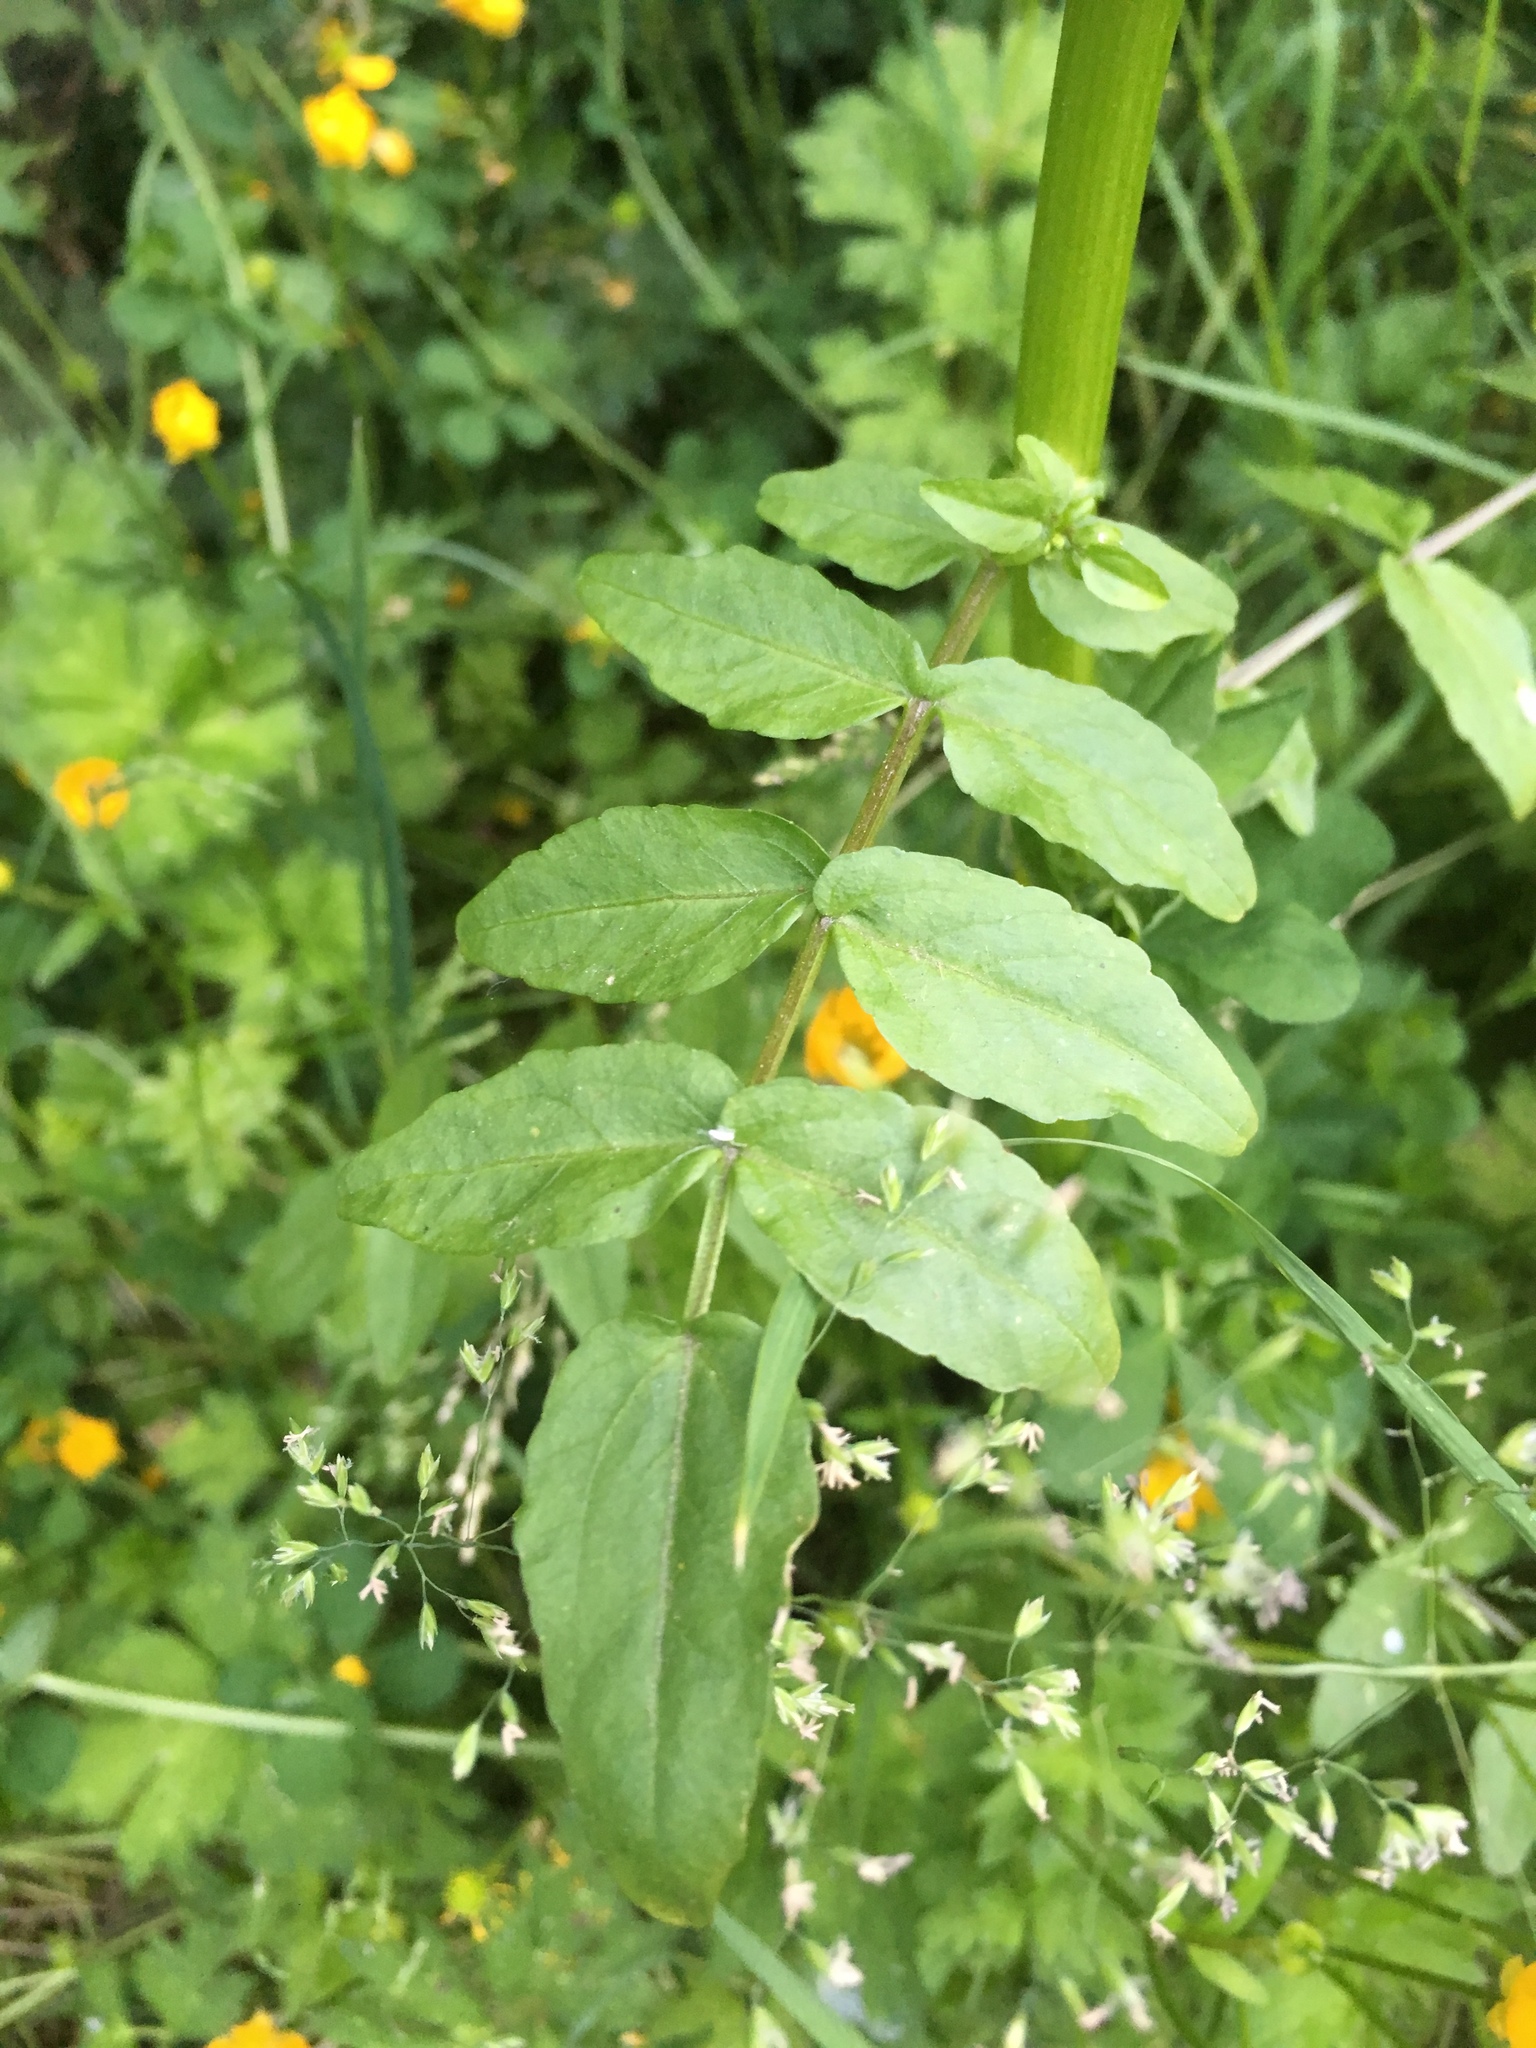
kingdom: Plantae
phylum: Tracheophyta
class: Magnoliopsida
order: Brassicales
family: Brassicaceae
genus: Nasturtium
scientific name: Nasturtium officinale
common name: Watercress
